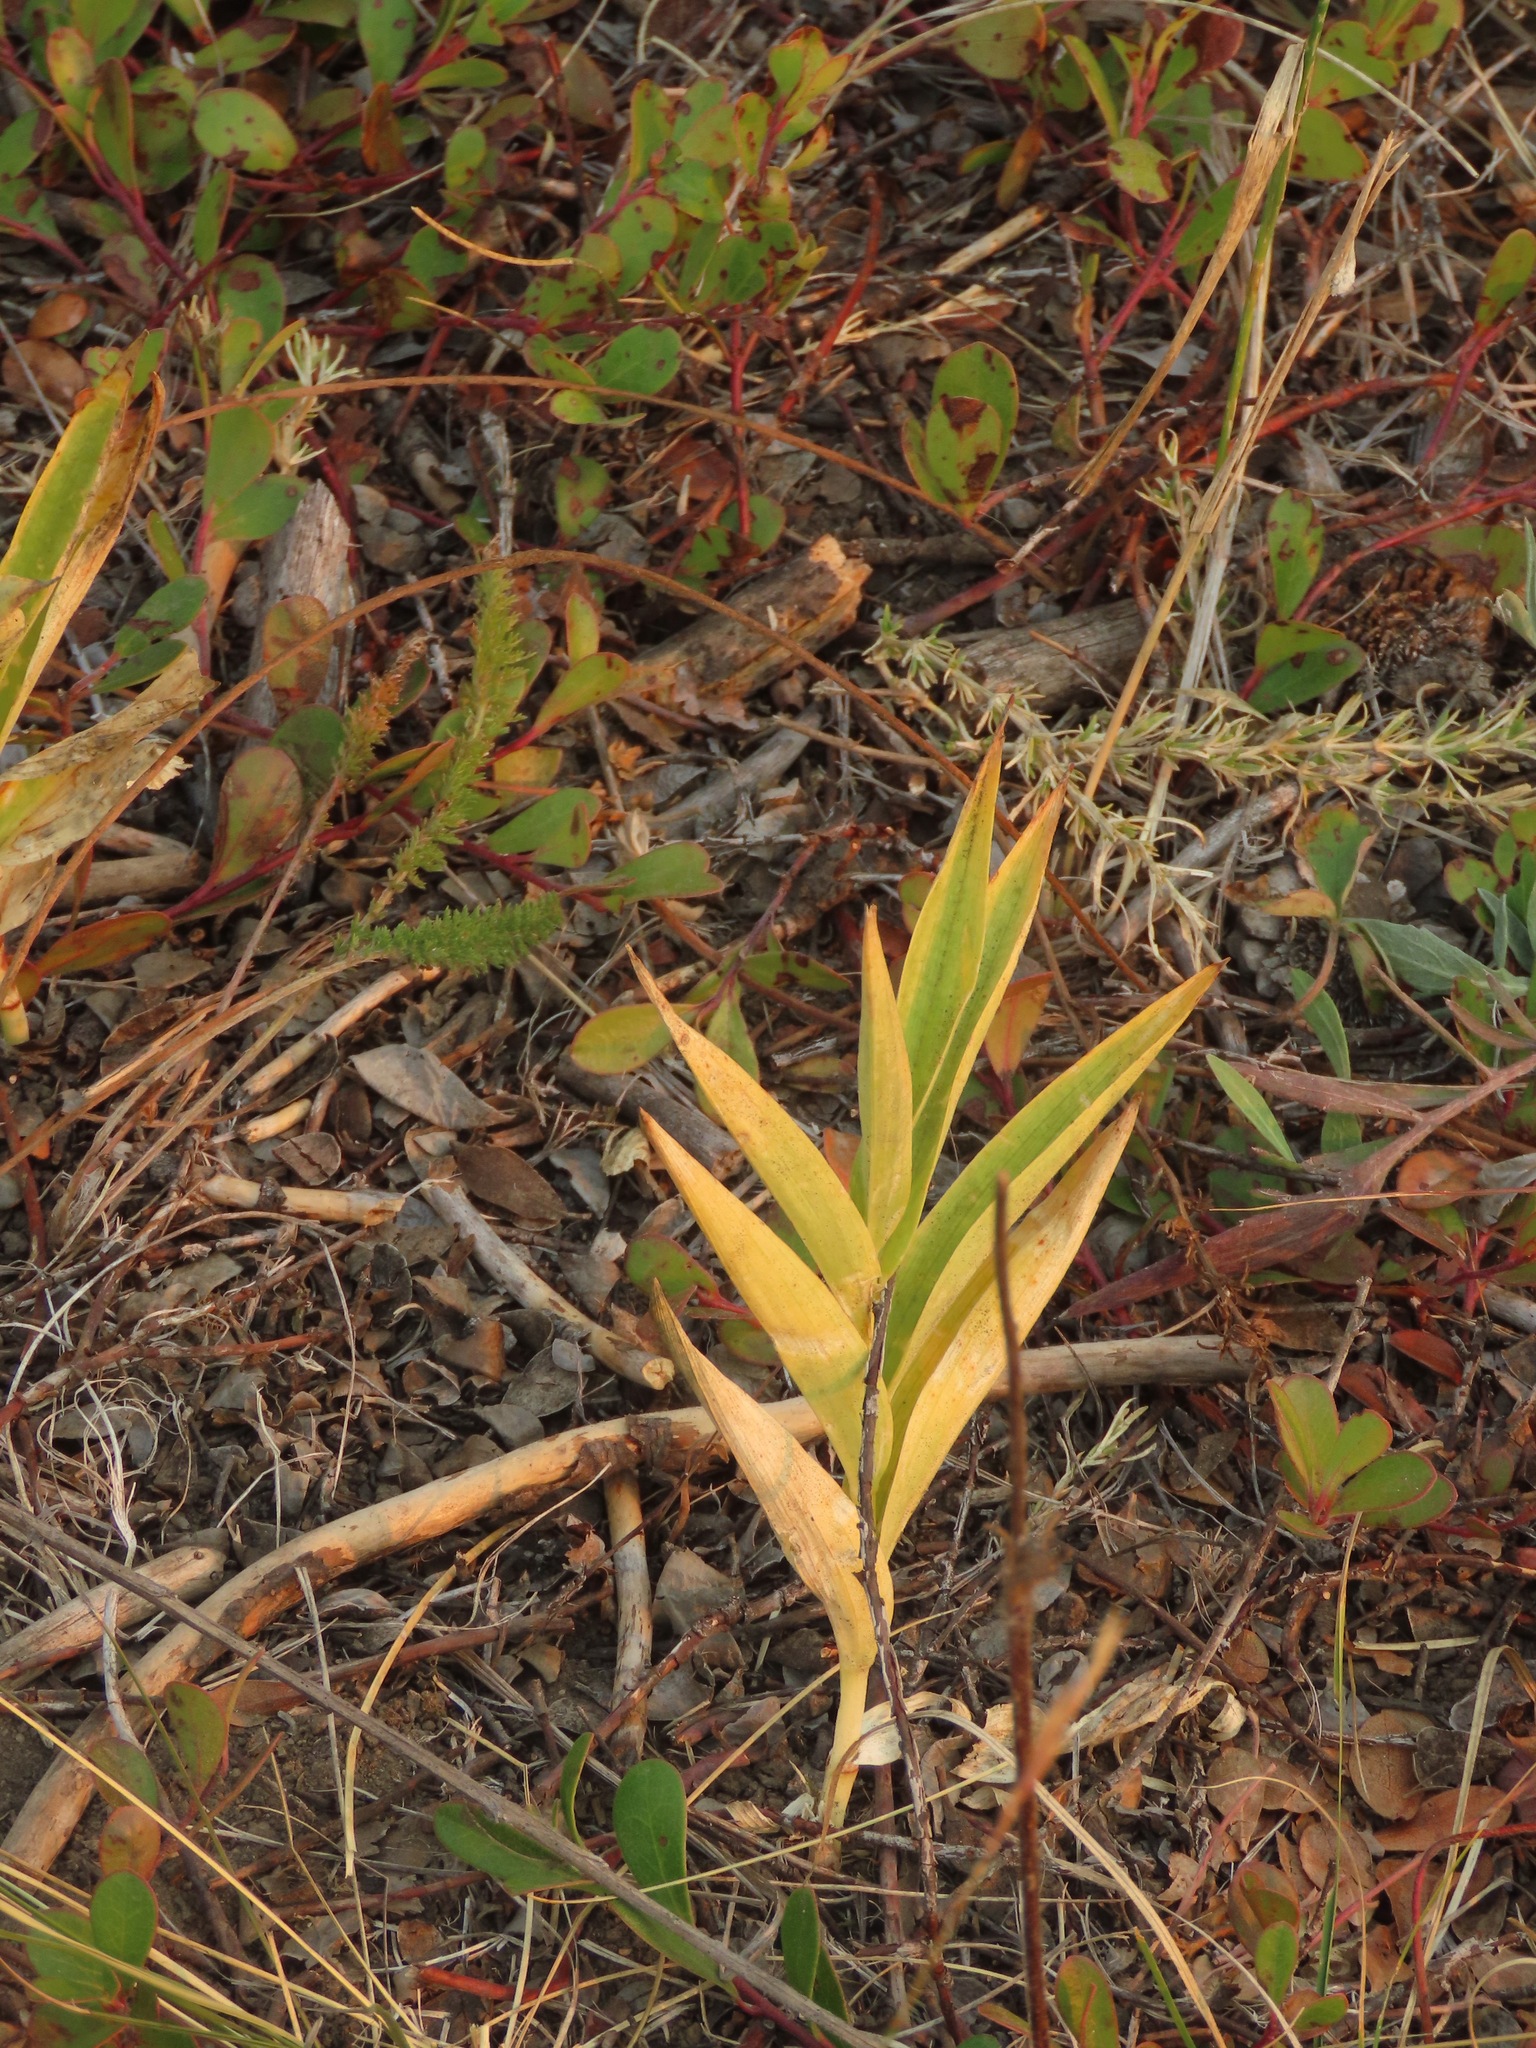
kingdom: Plantae
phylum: Tracheophyta
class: Liliopsida
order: Asparagales
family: Asparagaceae
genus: Maianthemum
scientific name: Maianthemum stellatum
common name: Little false solomon's seal
